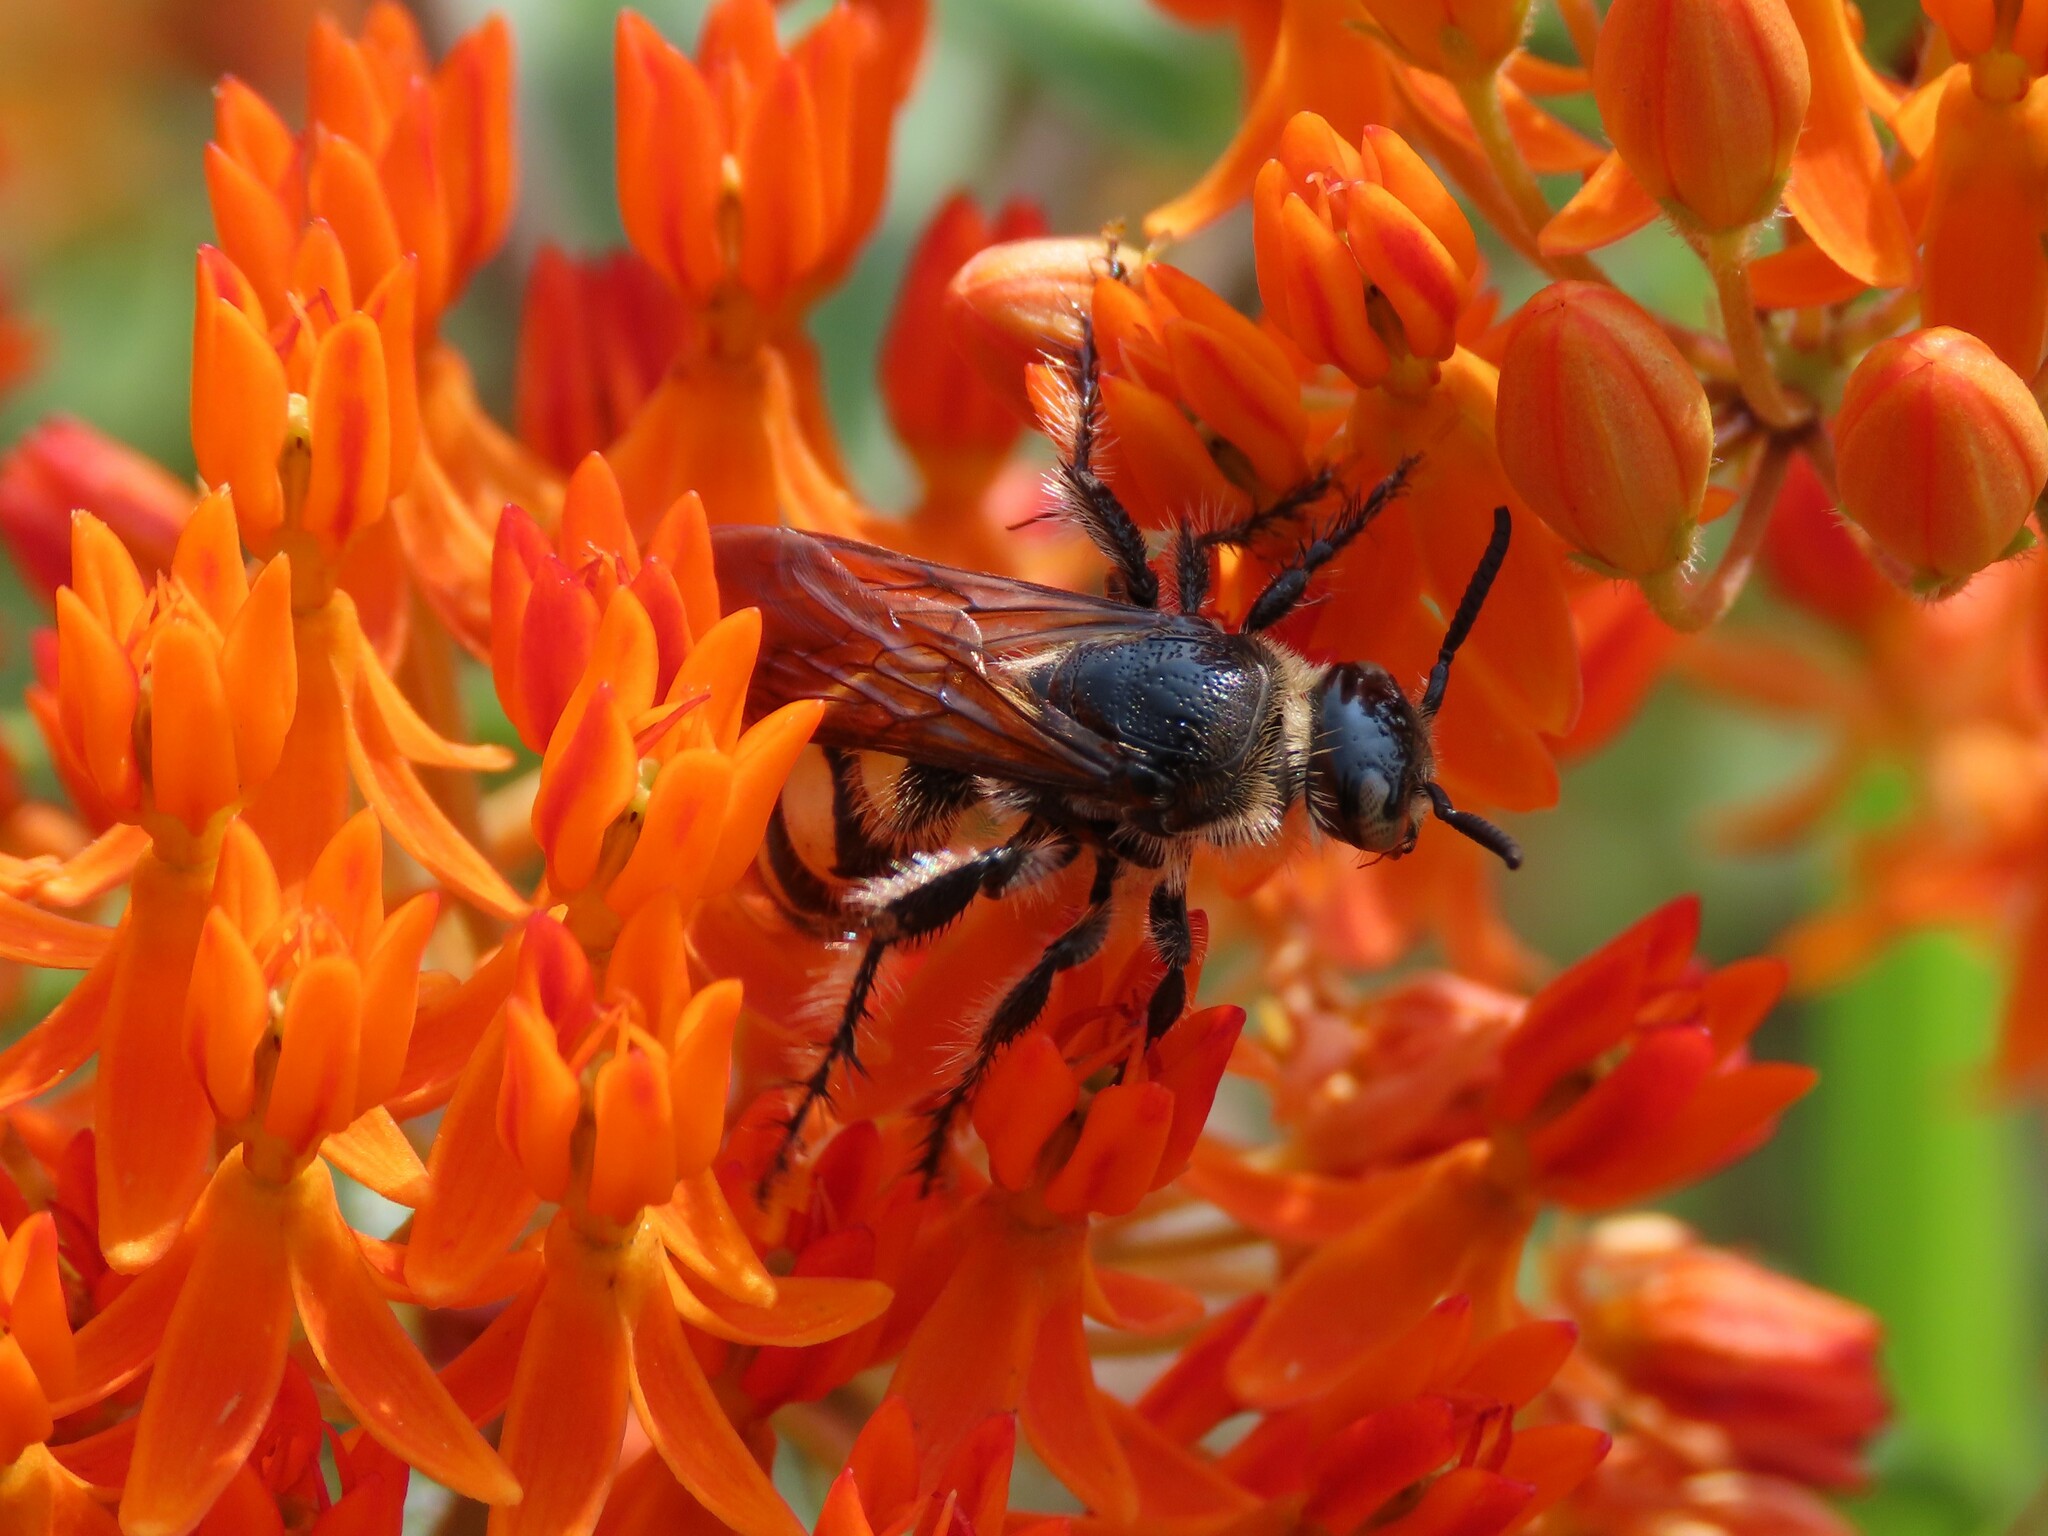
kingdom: Animalia
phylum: Arthropoda
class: Insecta
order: Hymenoptera
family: Scoliidae
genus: Dielis
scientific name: Dielis
